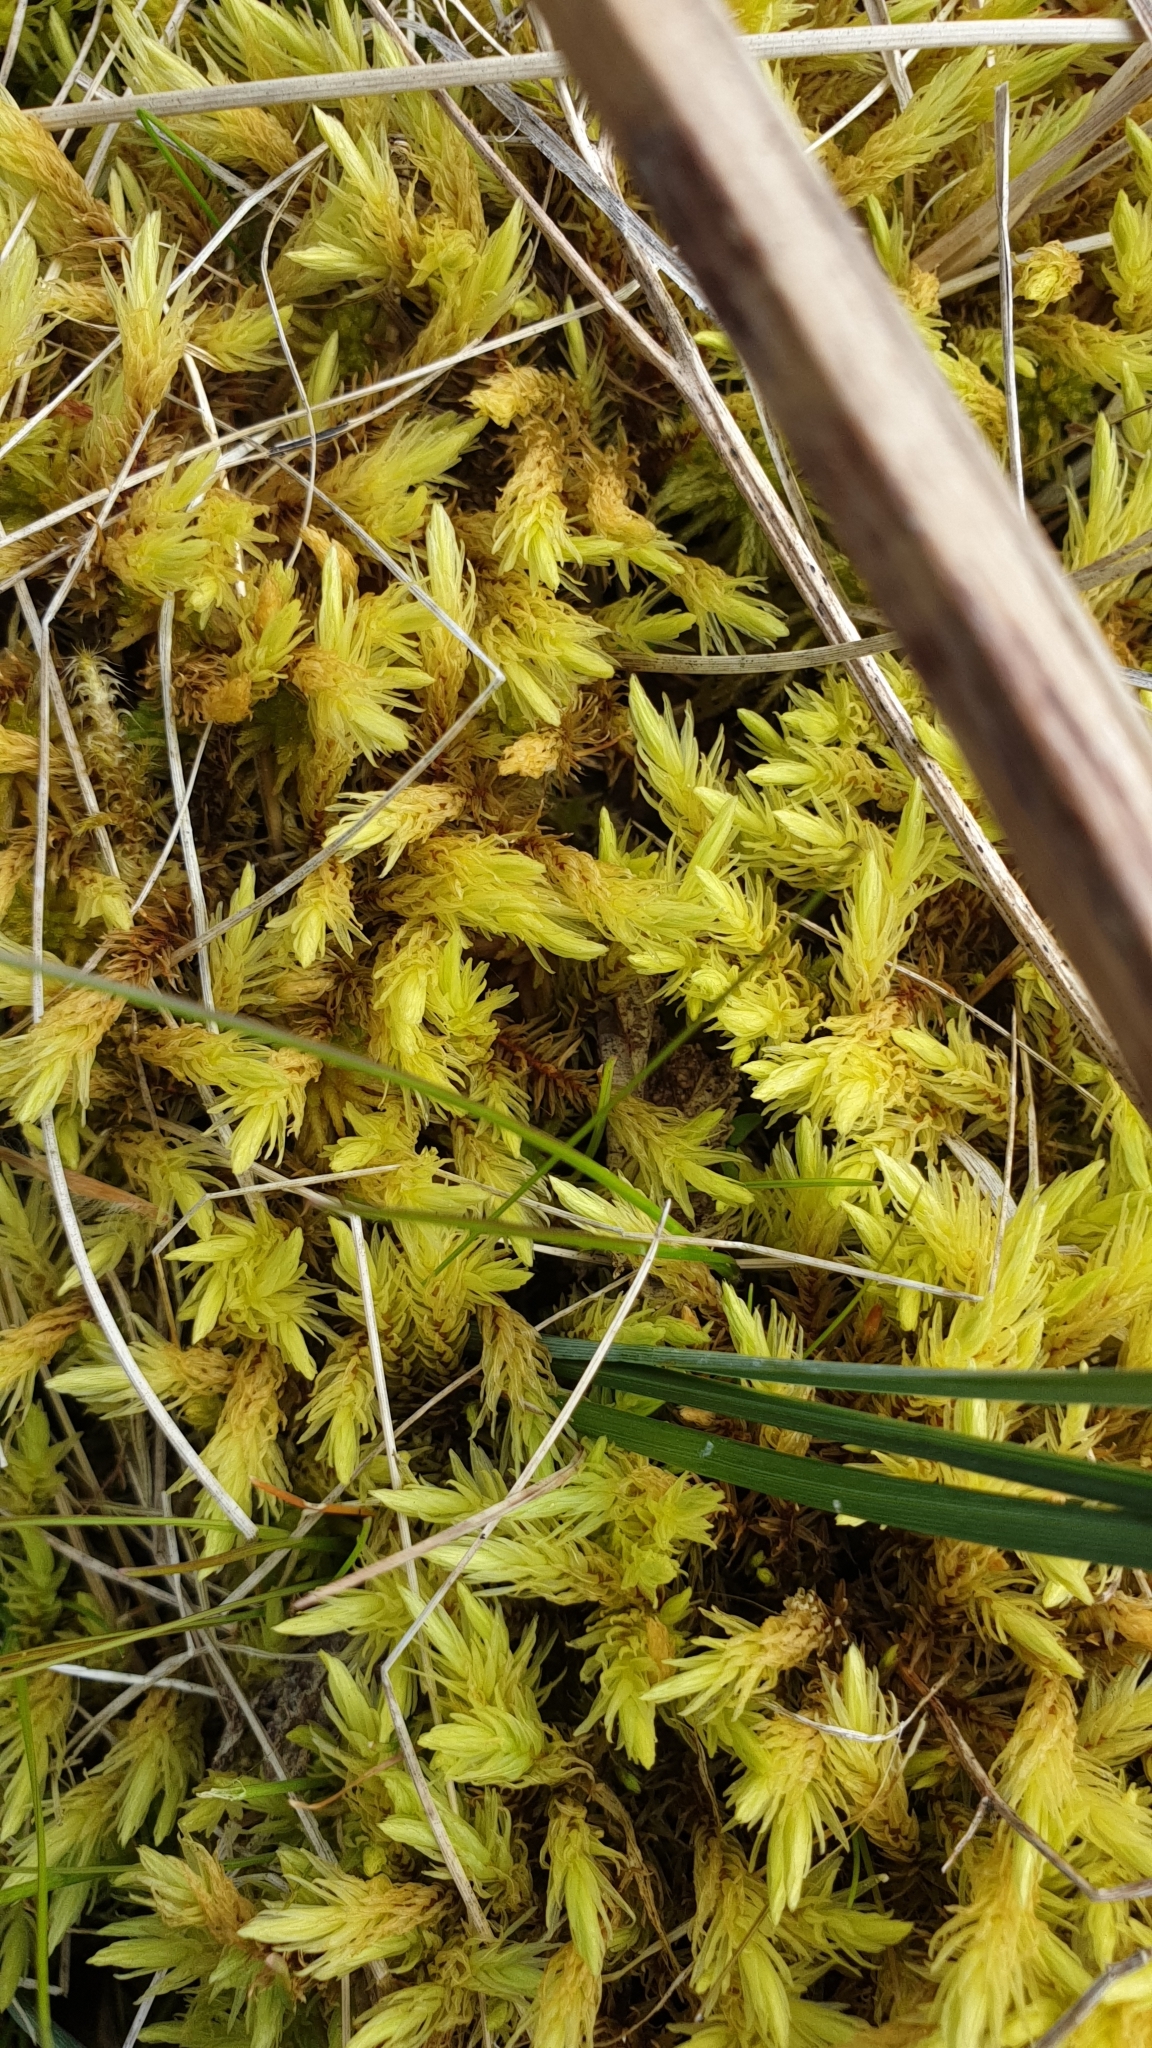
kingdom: Plantae
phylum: Bryophyta
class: Bryopsida
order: Aulacomniales
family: Aulacomniaceae
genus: Aulacomnium
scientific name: Aulacomnium palustre
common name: Bog groove-moss
